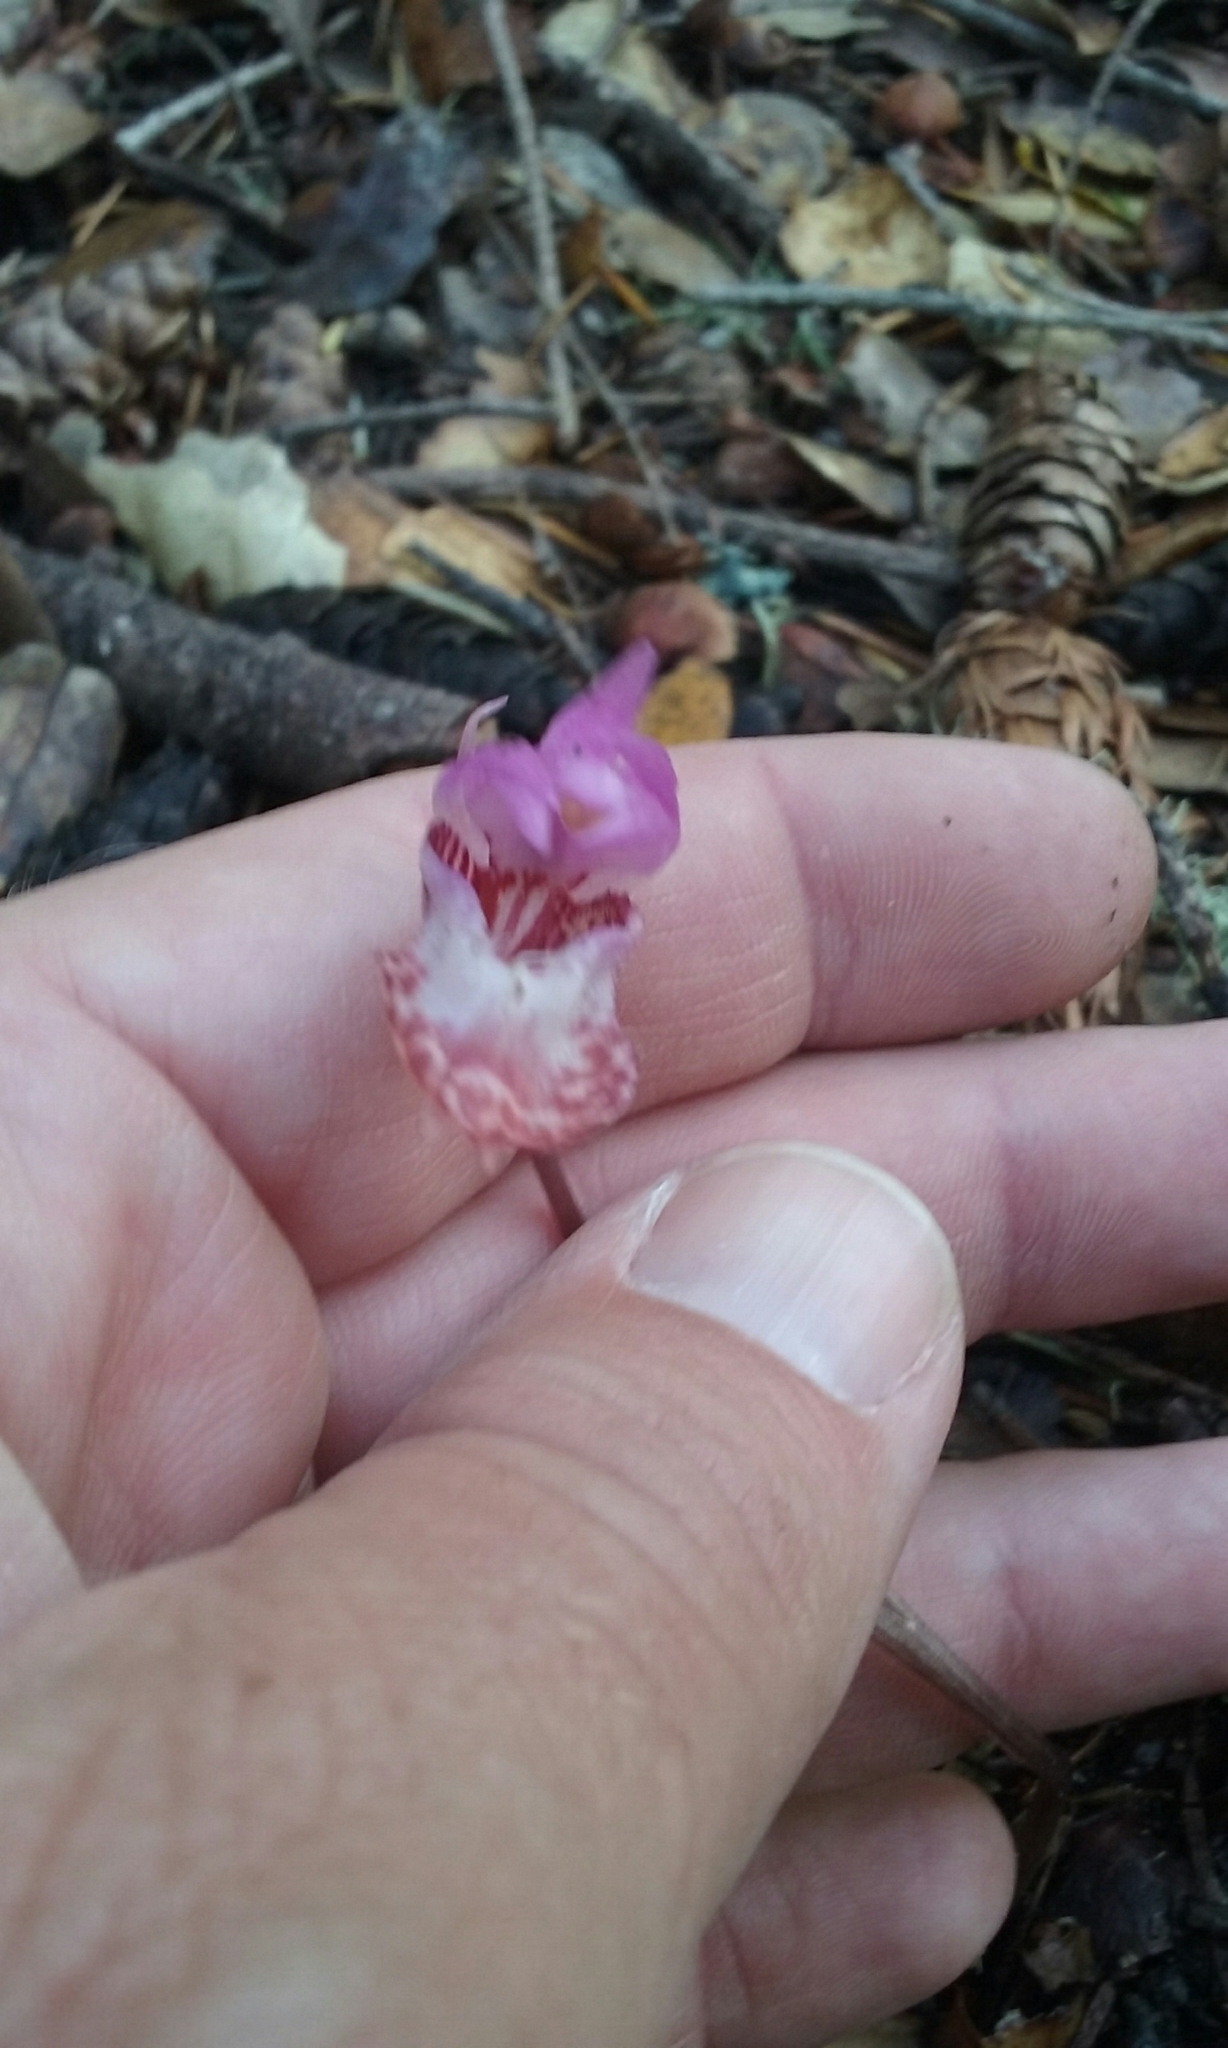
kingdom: Plantae
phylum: Tracheophyta
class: Liliopsida
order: Asparagales
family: Orchidaceae
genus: Calypso
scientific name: Calypso bulbosa
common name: Calypso
